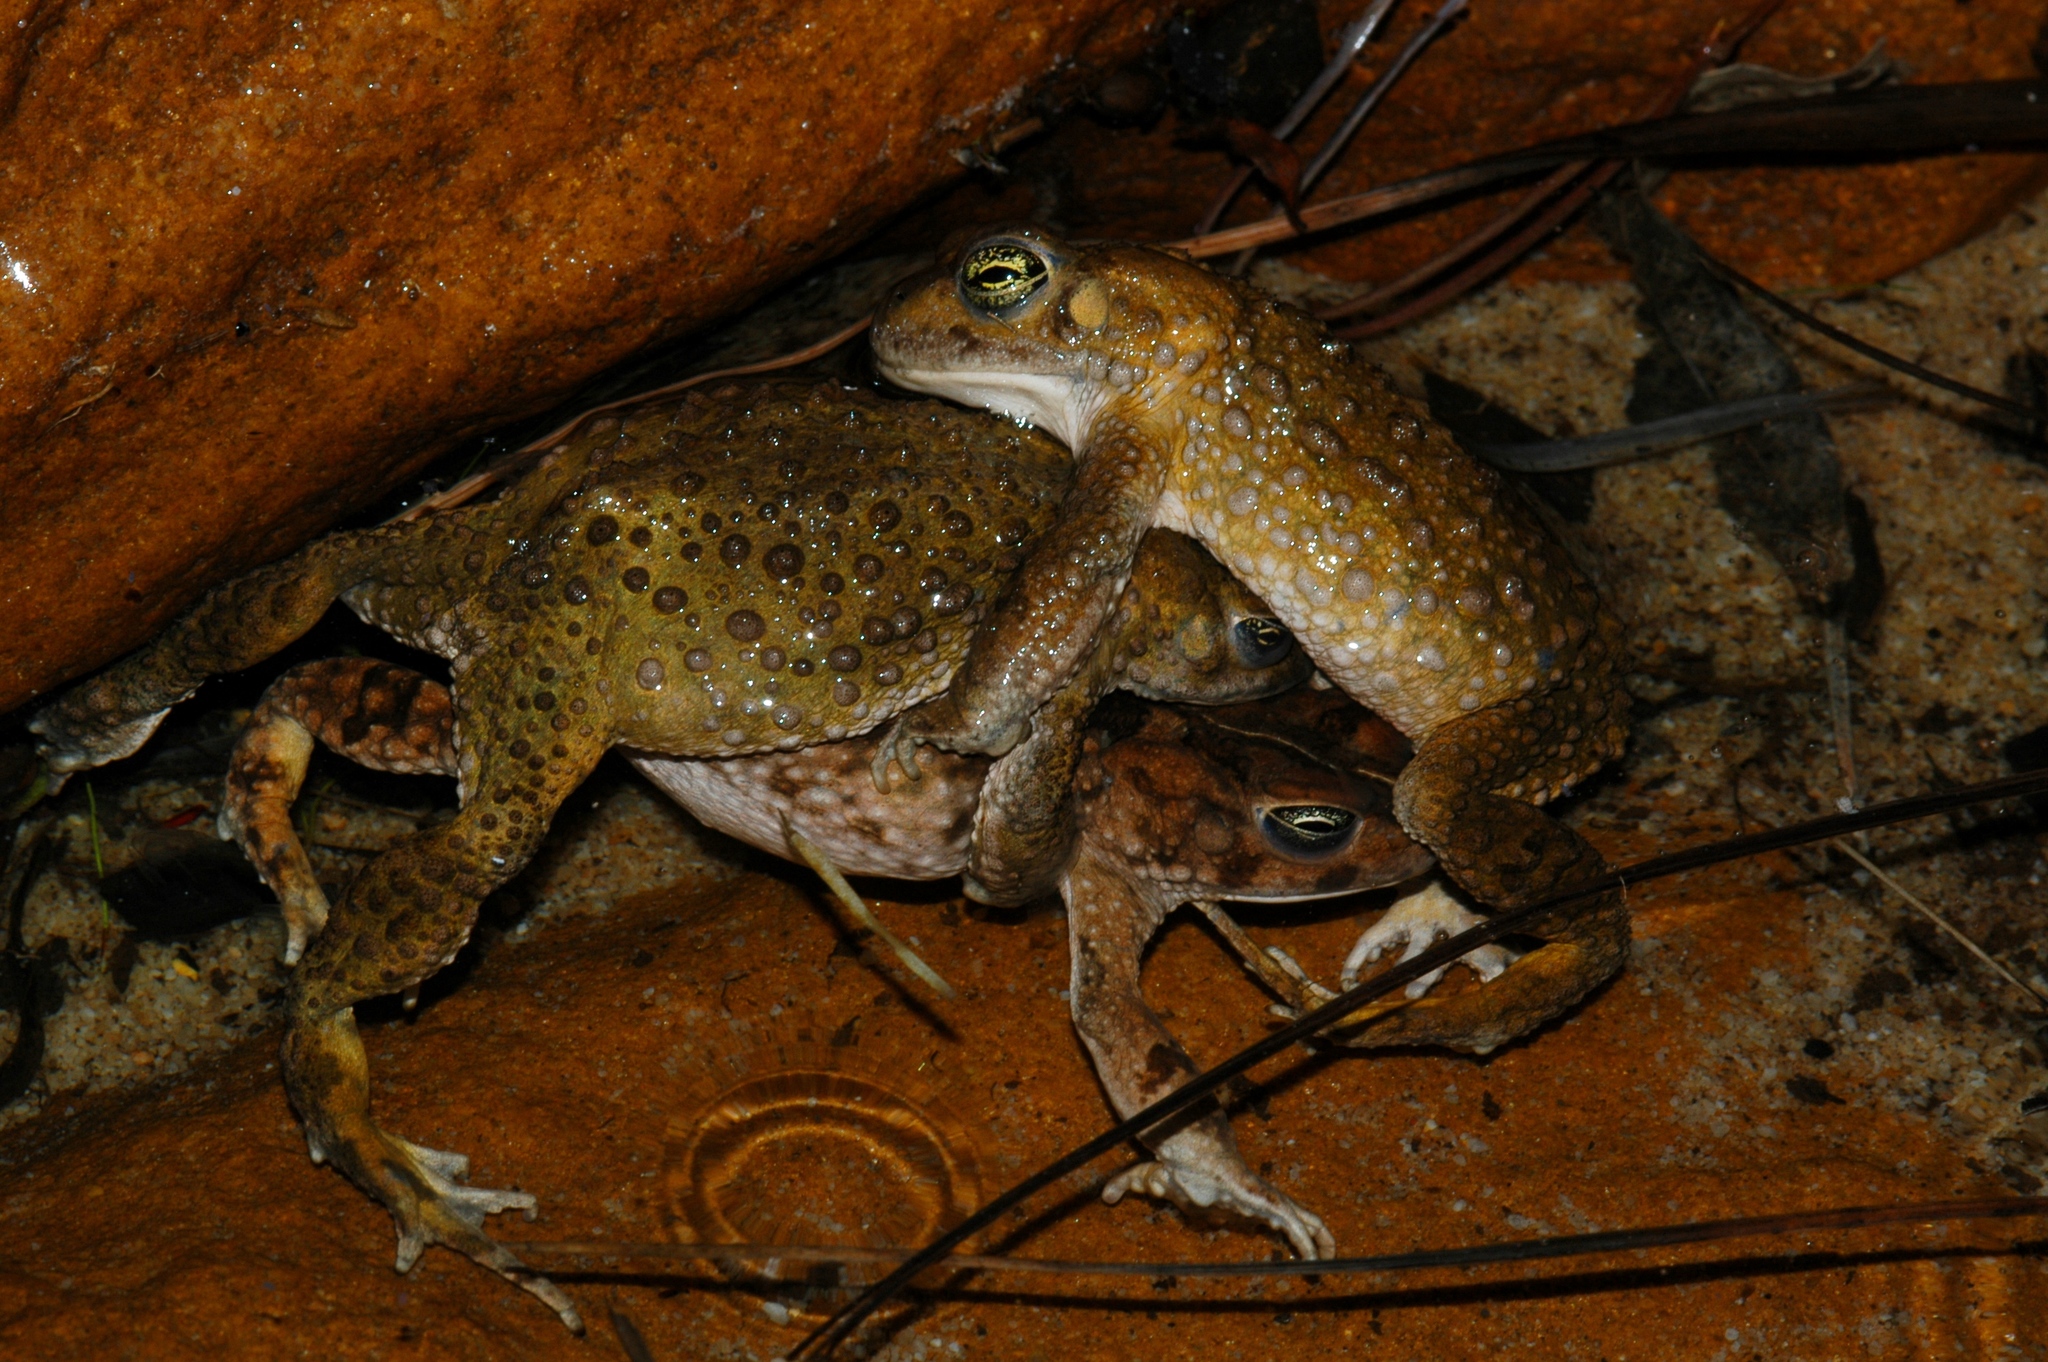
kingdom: Animalia
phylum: Chordata
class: Amphibia
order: Anura
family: Bufonidae
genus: Vandijkophrynus
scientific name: Vandijkophrynus angusticeps
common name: Sand toad
